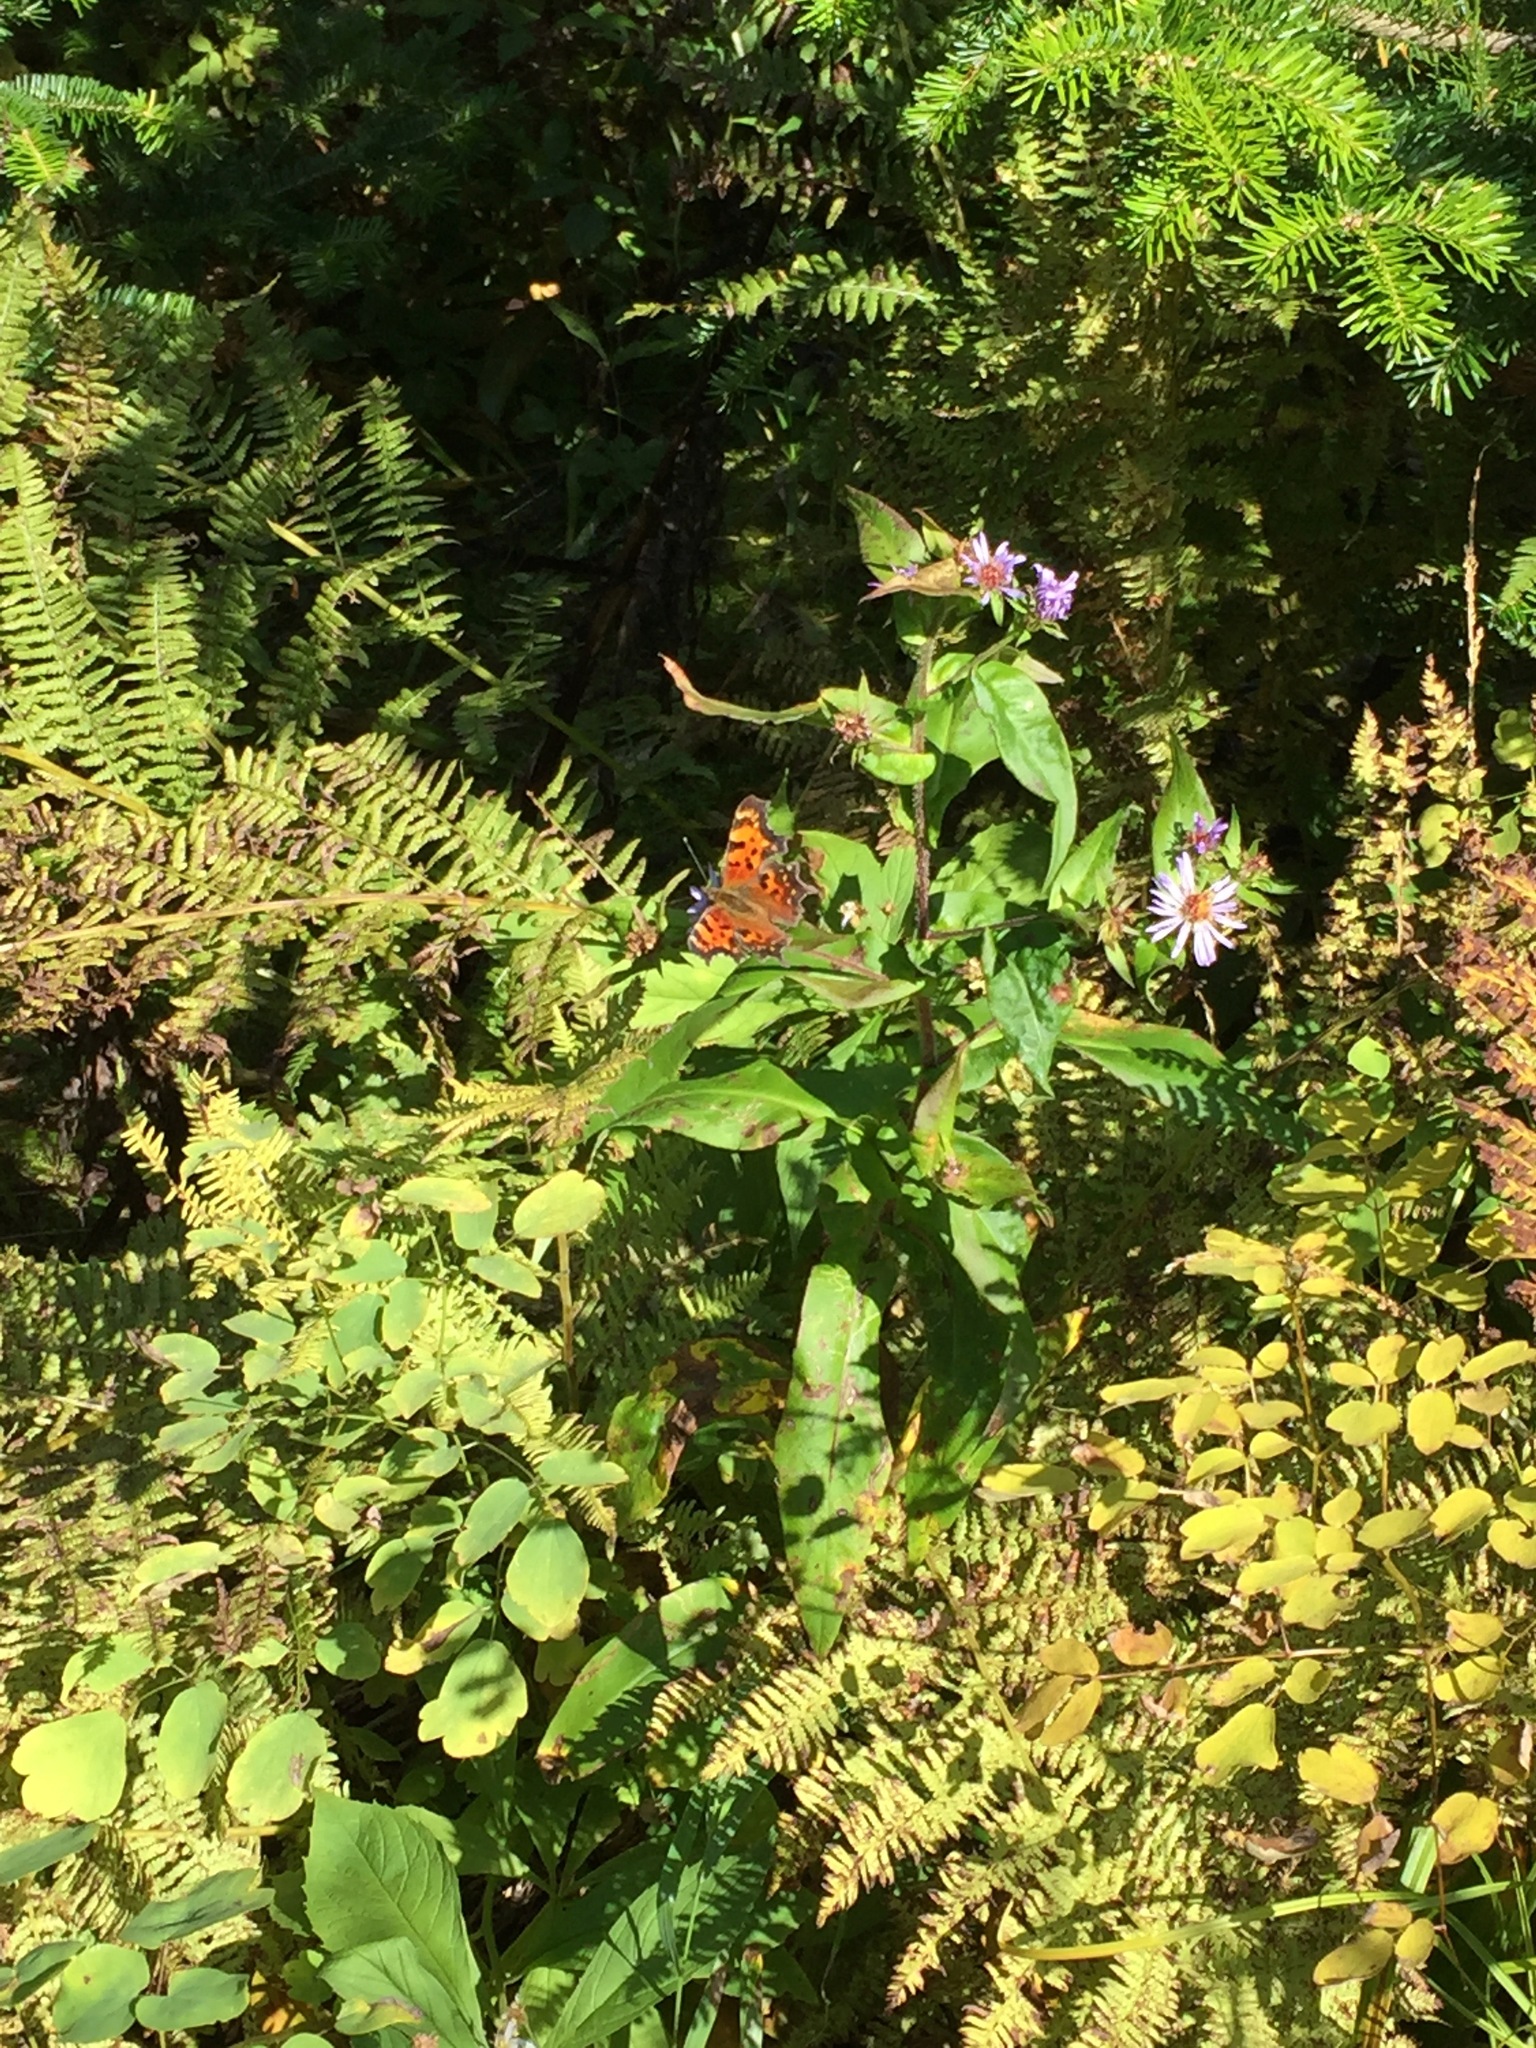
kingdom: Animalia
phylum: Arthropoda
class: Insecta
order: Lepidoptera
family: Nymphalidae
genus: Polygonia
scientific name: Polygonia faunus
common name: Green comma
